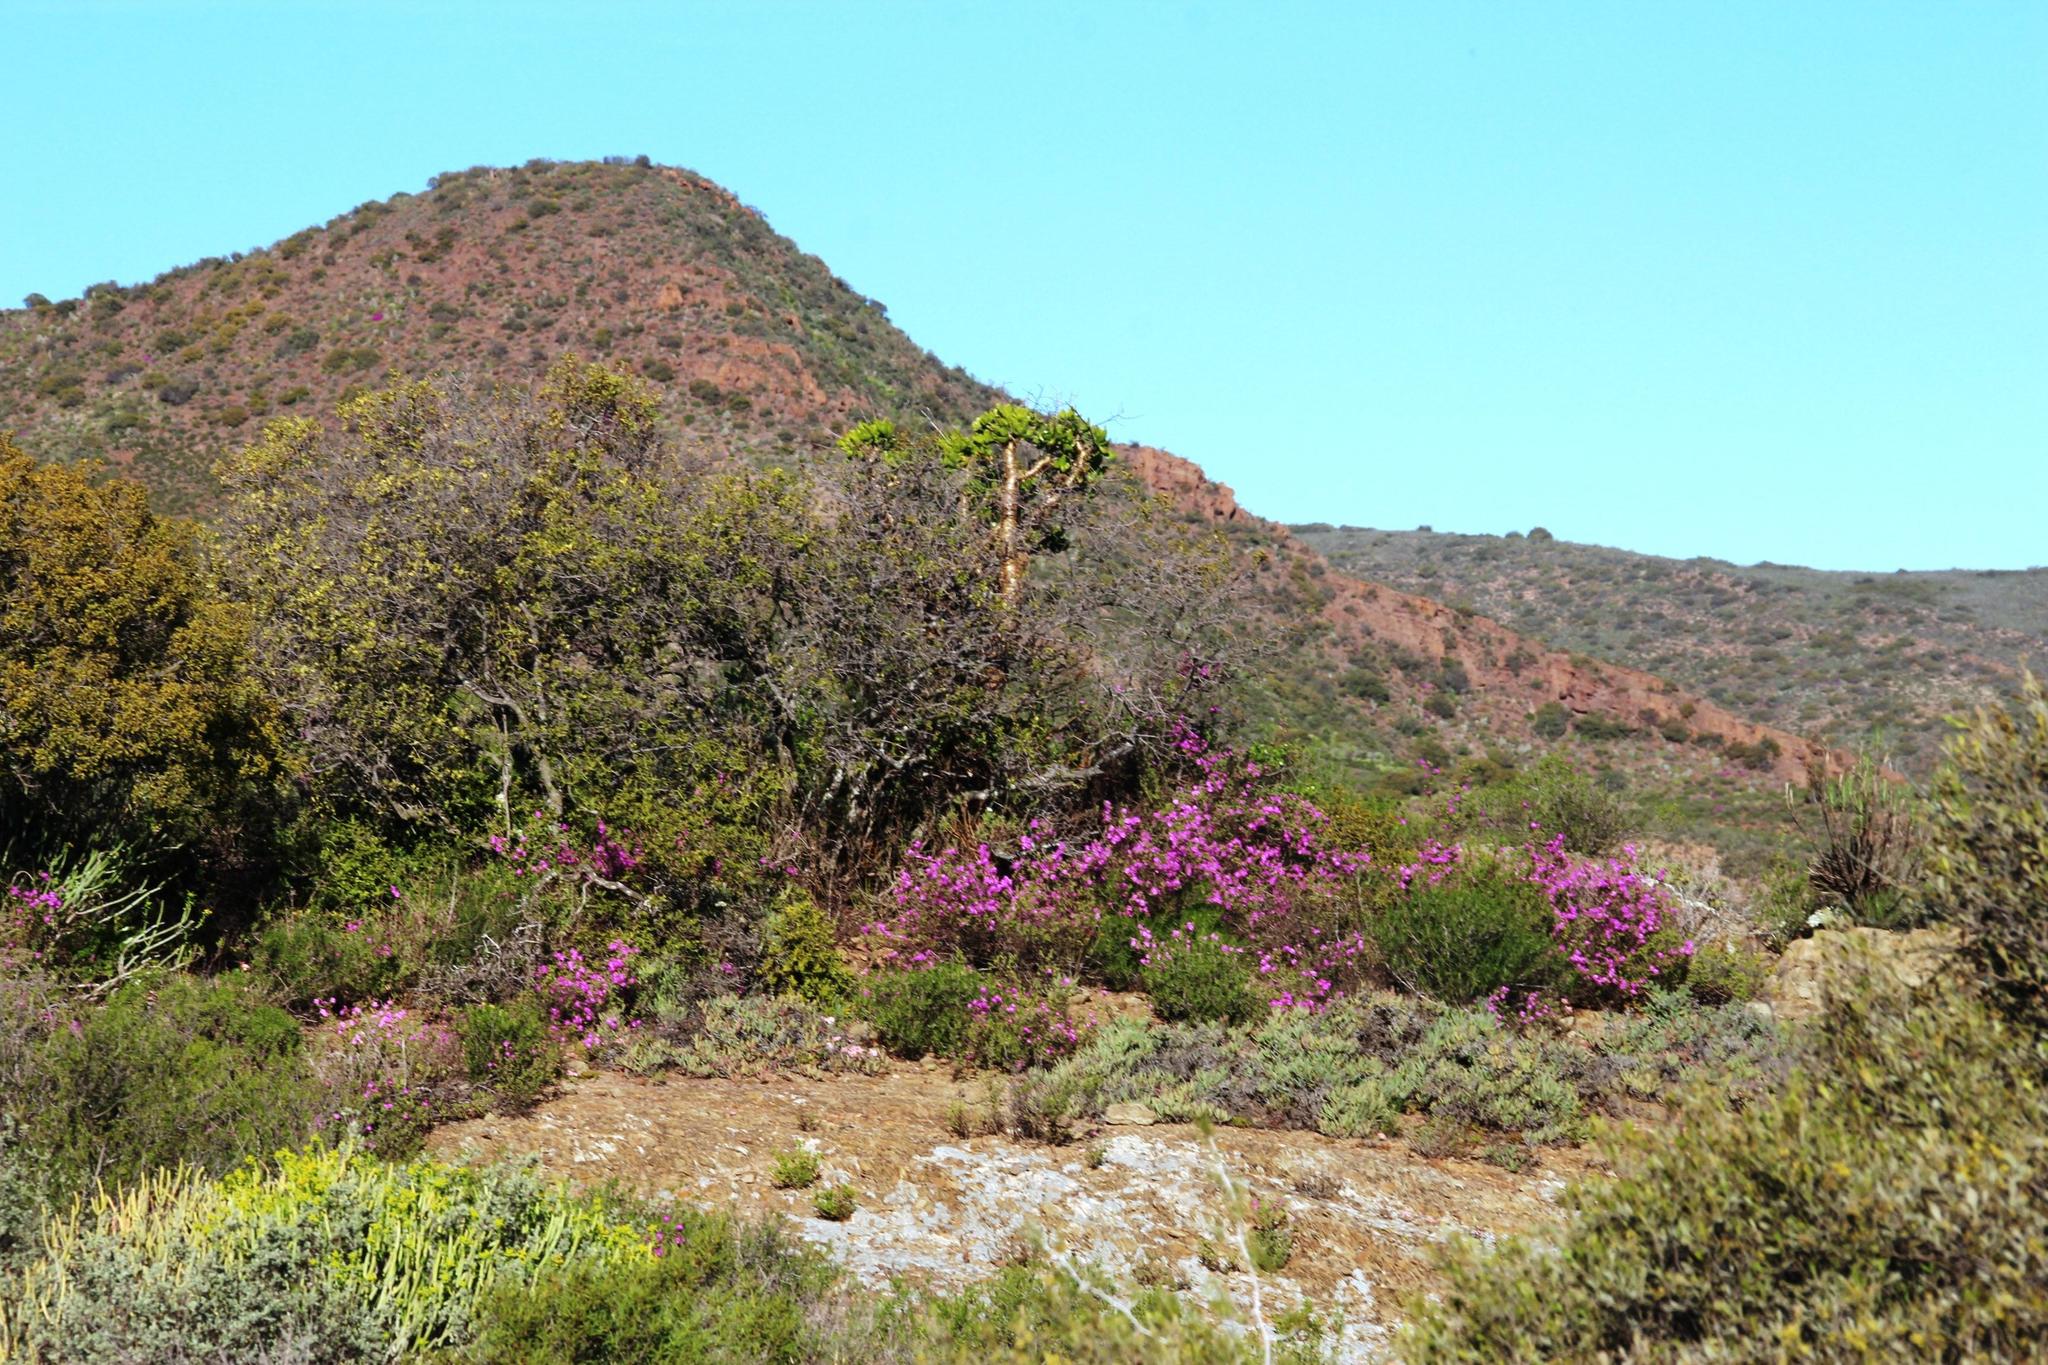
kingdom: Plantae
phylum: Tracheophyta
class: Magnoliopsida
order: Saxifragales
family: Crassulaceae
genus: Tylecodon
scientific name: Tylecodon paniculatus
